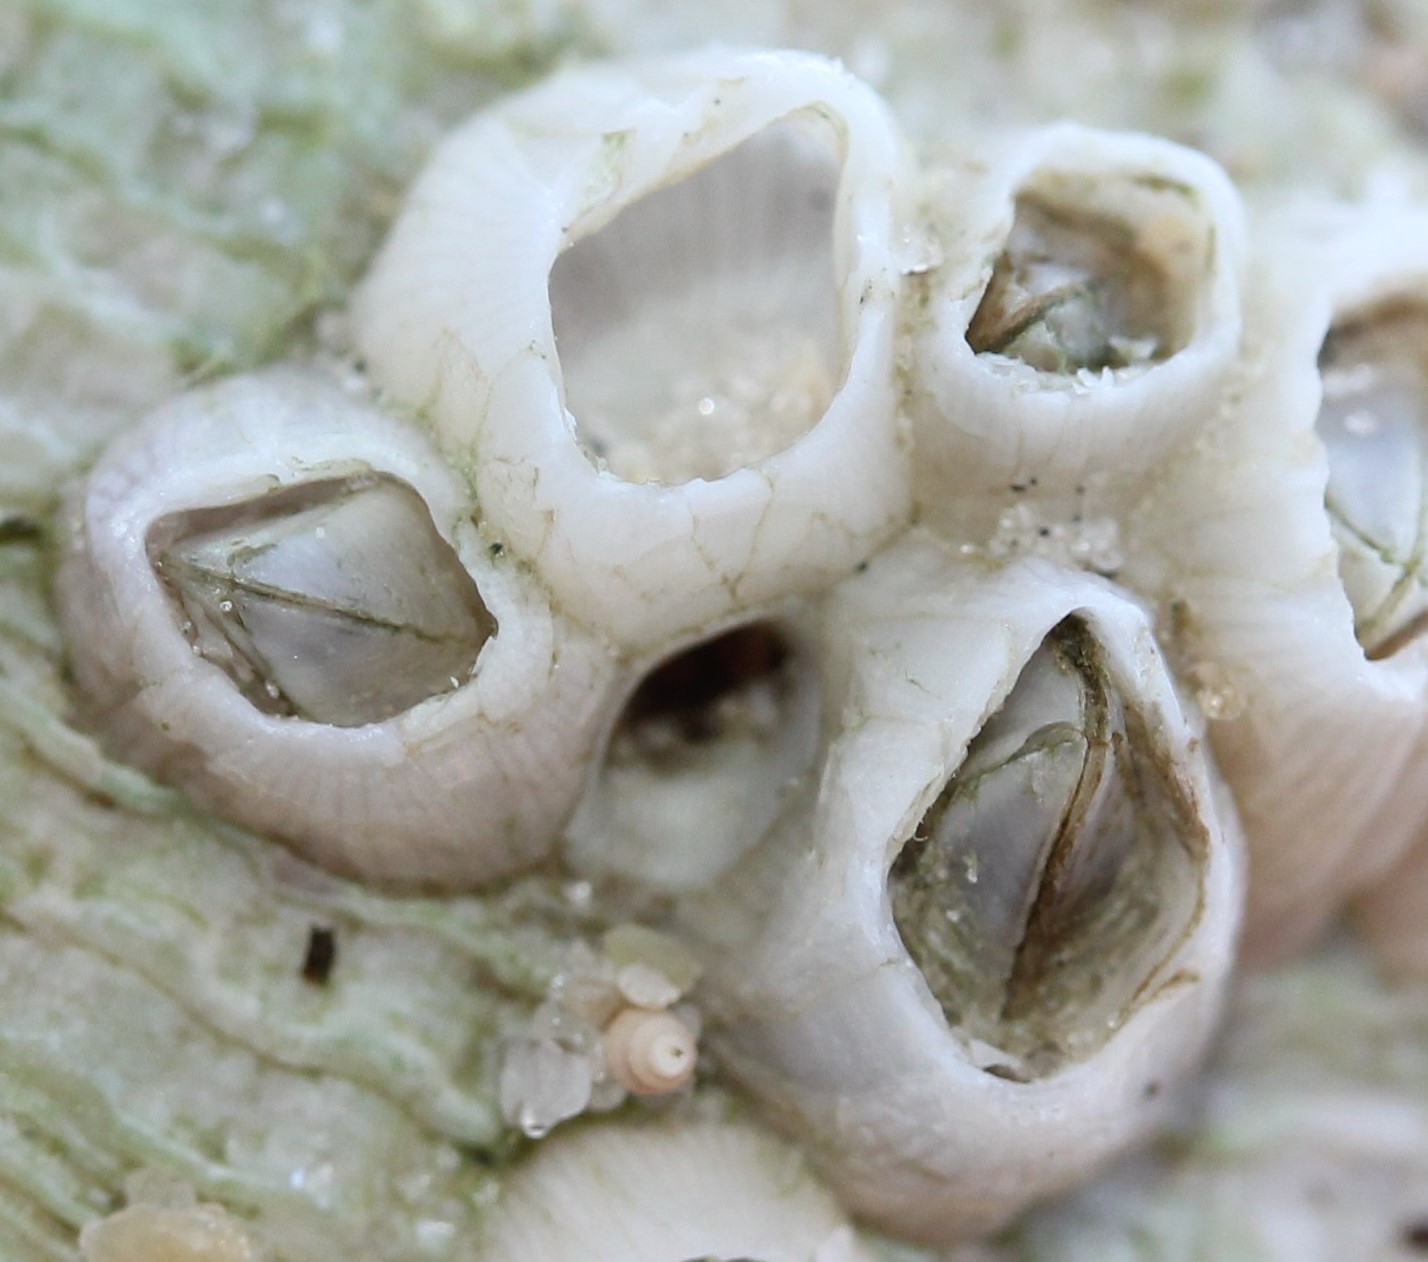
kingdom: Animalia
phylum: Arthropoda
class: Maxillopoda
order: Sessilia
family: Balanidae
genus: Amphibalanus
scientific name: Amphibalanus venustus
